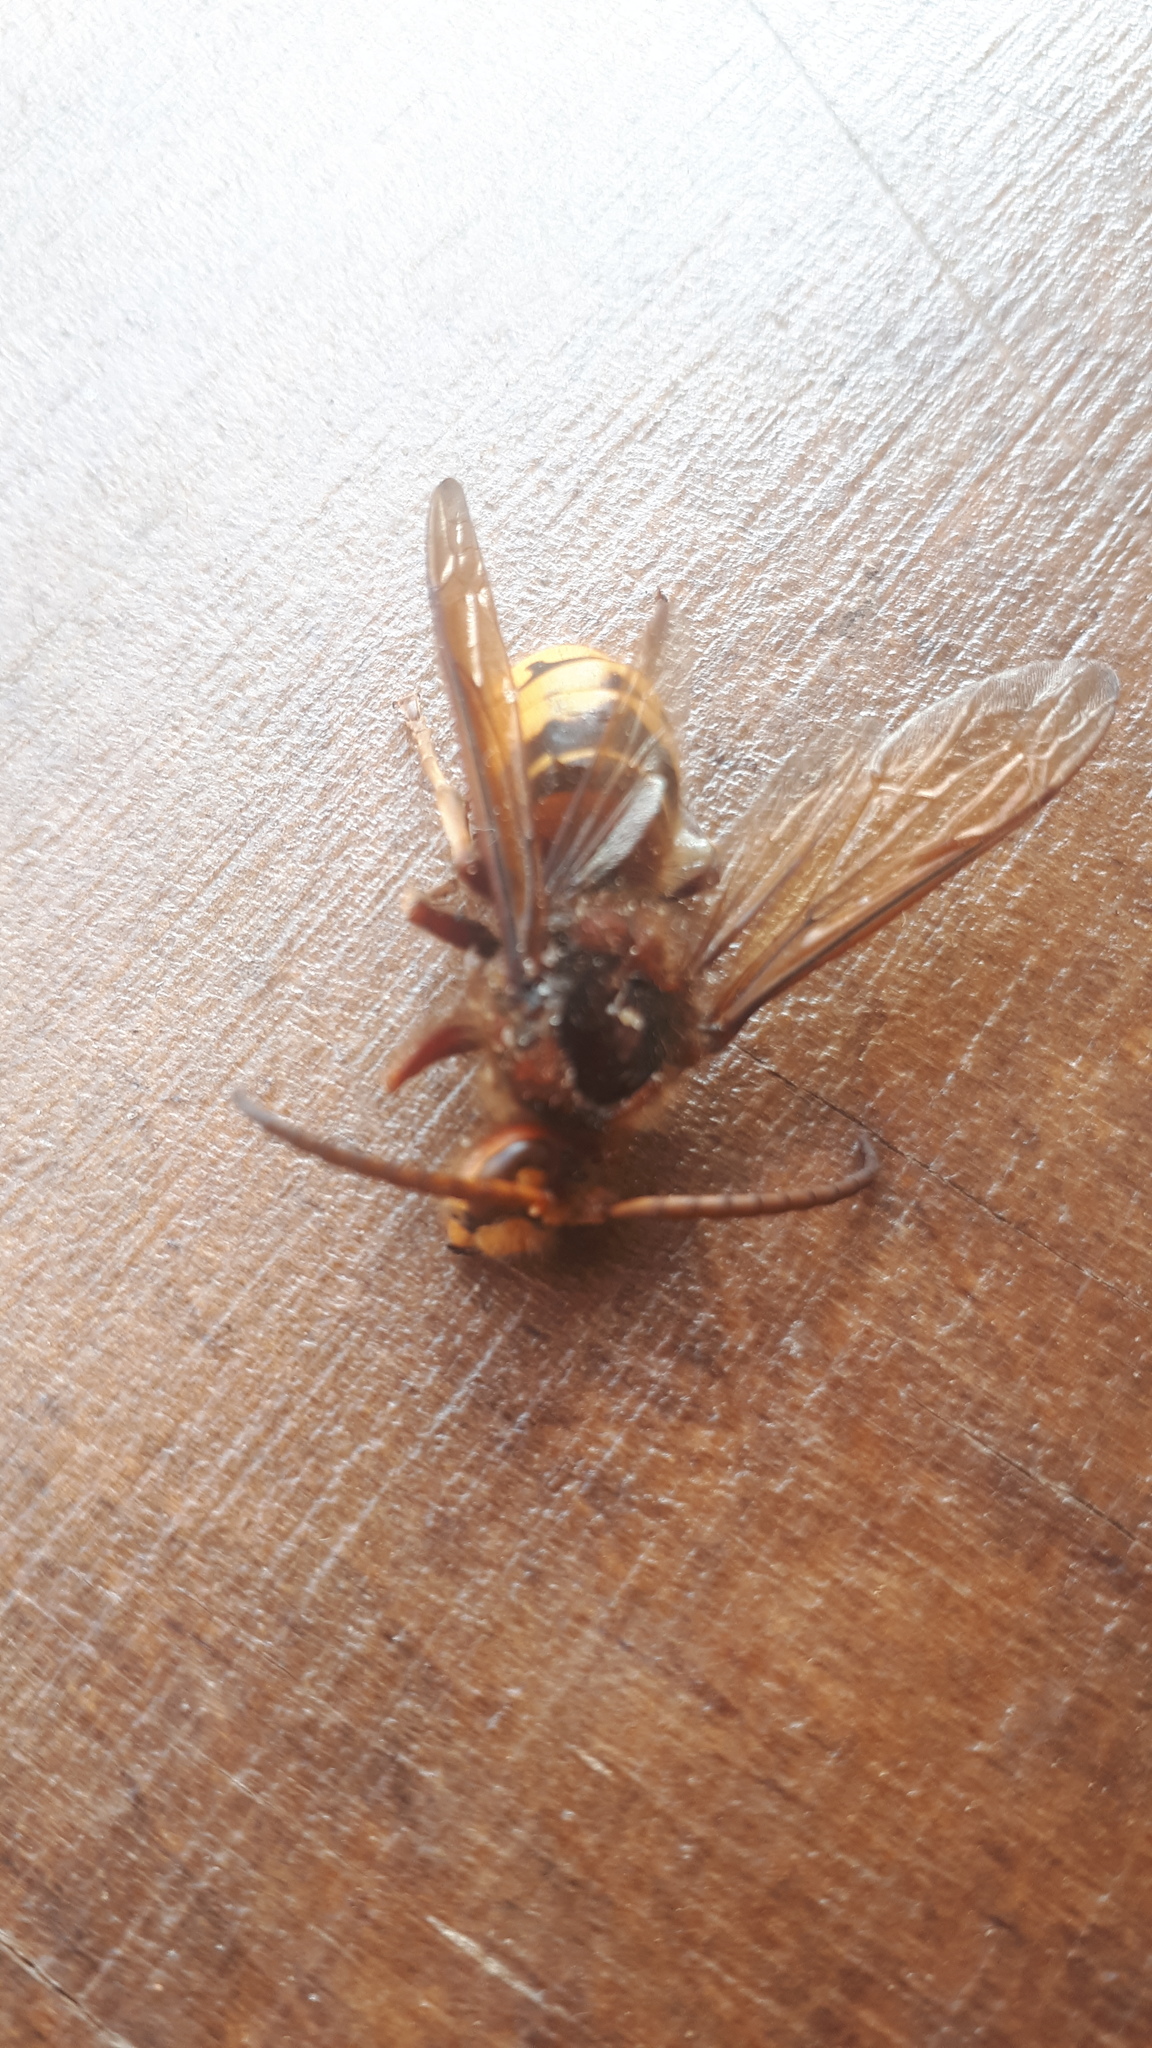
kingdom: Animalia
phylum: Arthropoda
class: Insecta
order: Hymenoptera
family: Vespidae
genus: Vespa
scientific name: Vespa crabro
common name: Hornet
